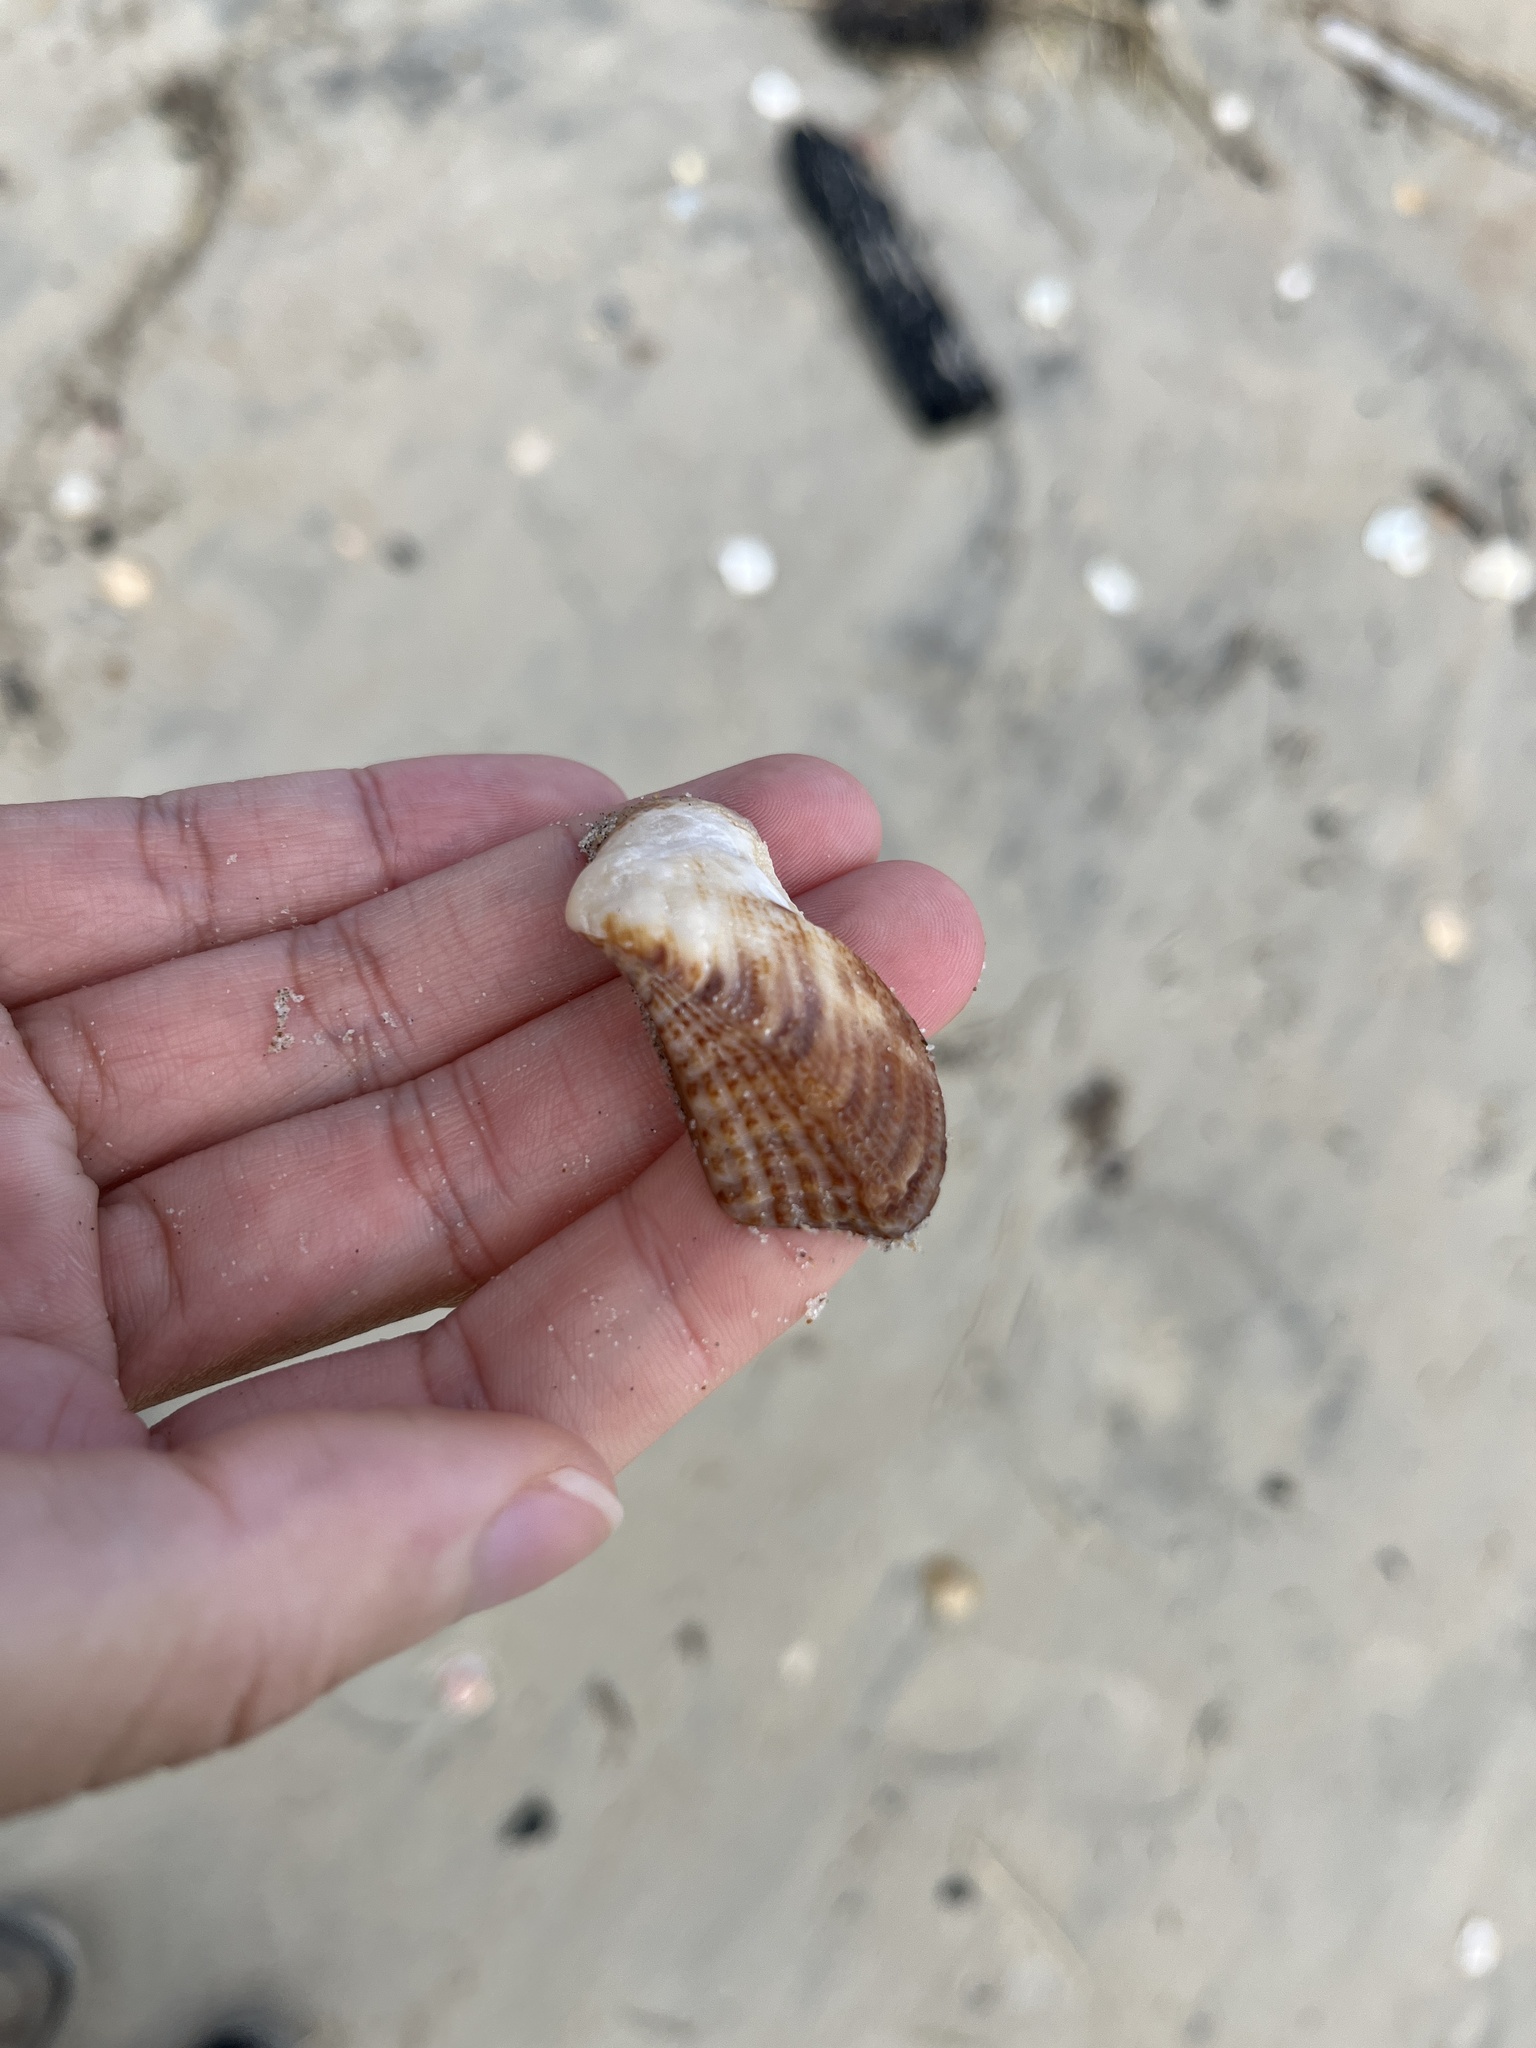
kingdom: Animalia
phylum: Mollusca
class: Bivalvia
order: Arcida
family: Arcidae
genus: Lamarcka
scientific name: Lamarcka imbricata
